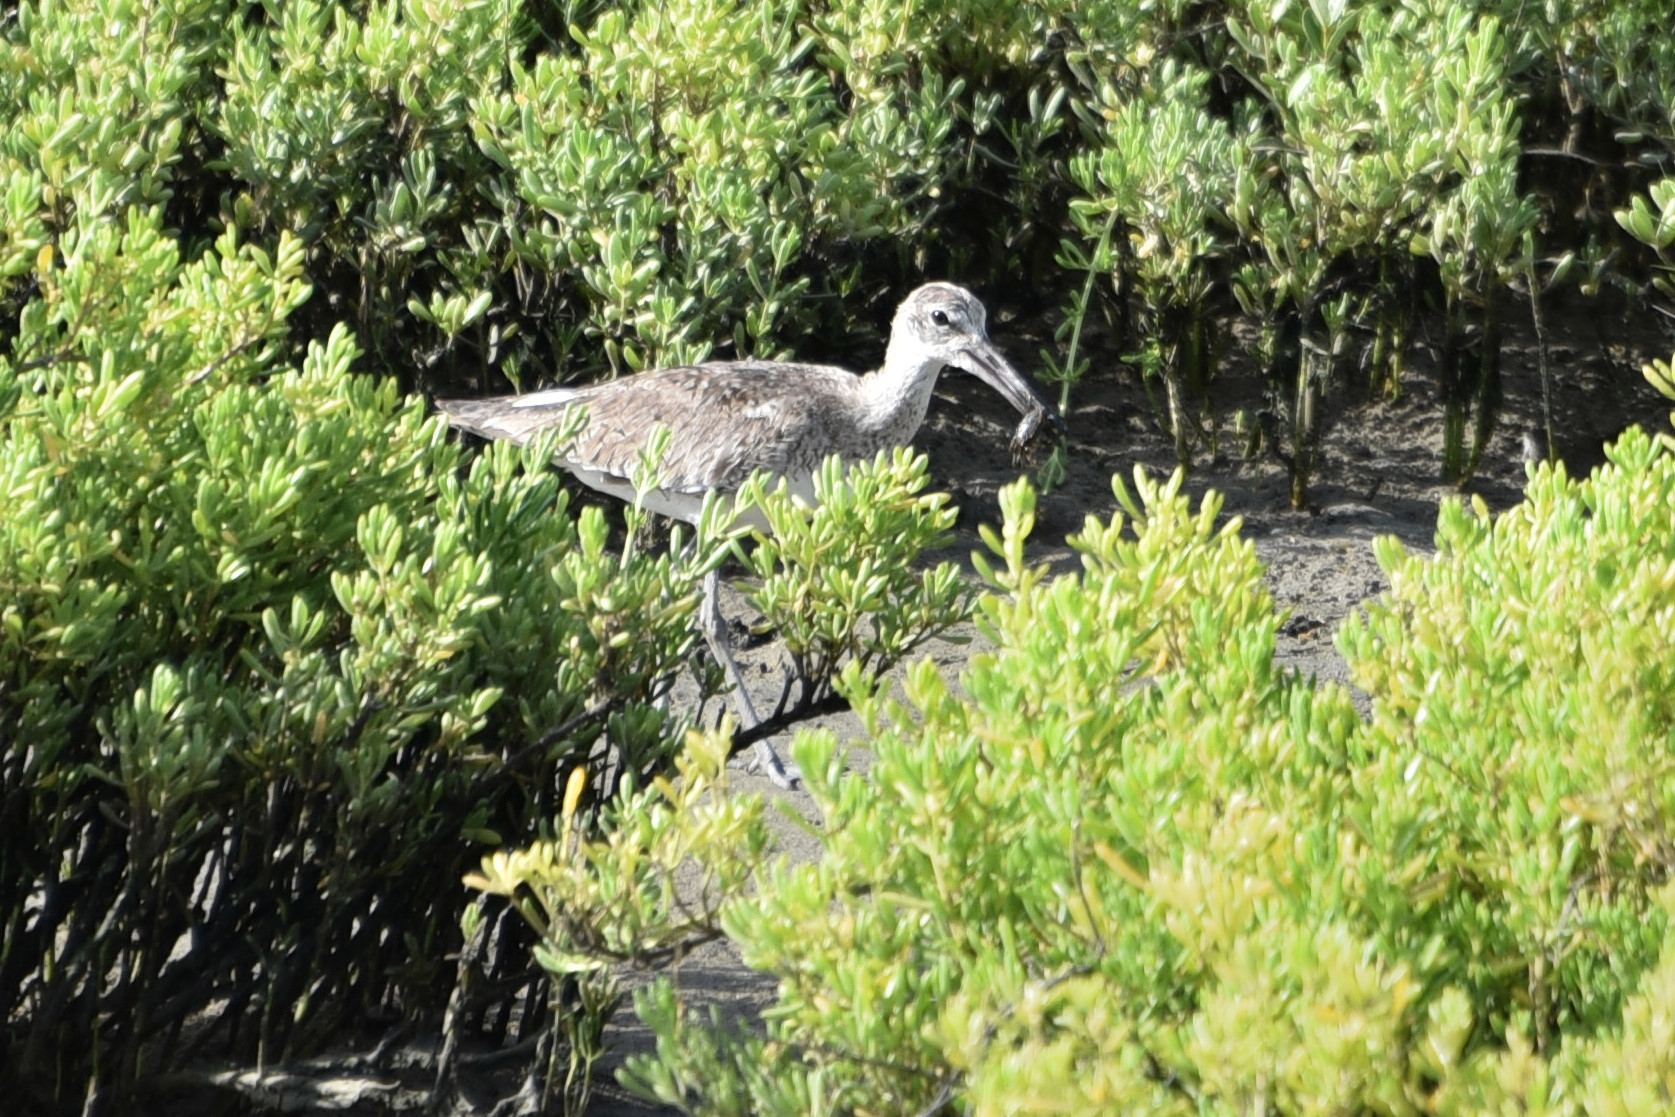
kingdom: Animalia
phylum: Chordata
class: Aves
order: Charadriiformes
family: Scolopacidae
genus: Tringa
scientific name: Tringa semipalmata
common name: Willet
